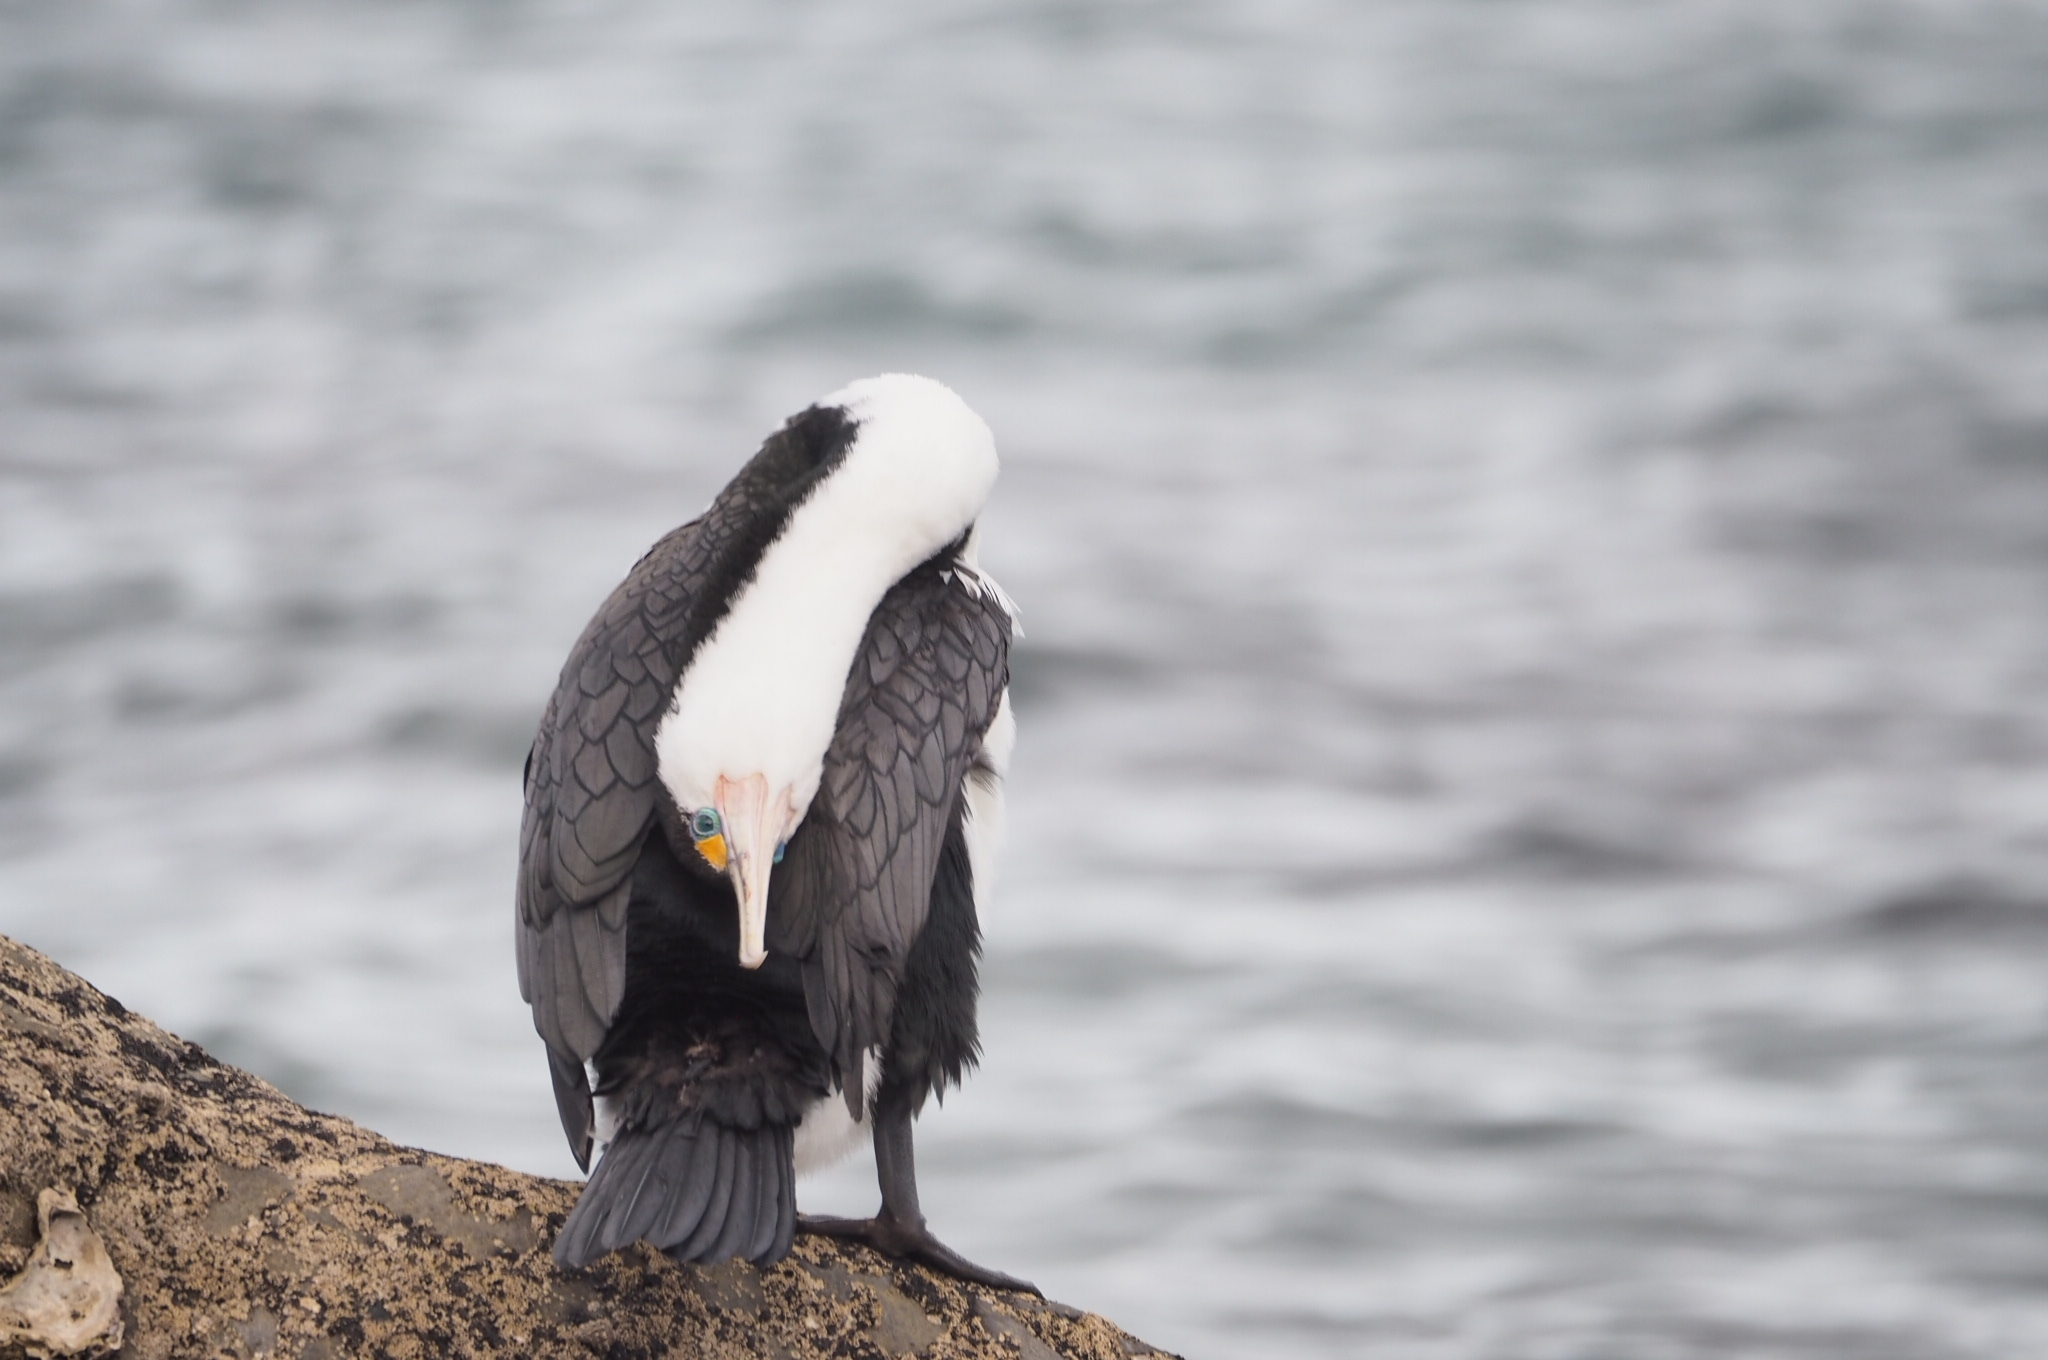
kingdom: Animalia
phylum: Chordata
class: Aves
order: Suliformes
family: Phalacrocoracidae
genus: Phalacrocorax
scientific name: Phalacrocorax varius
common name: Pied cormorant
